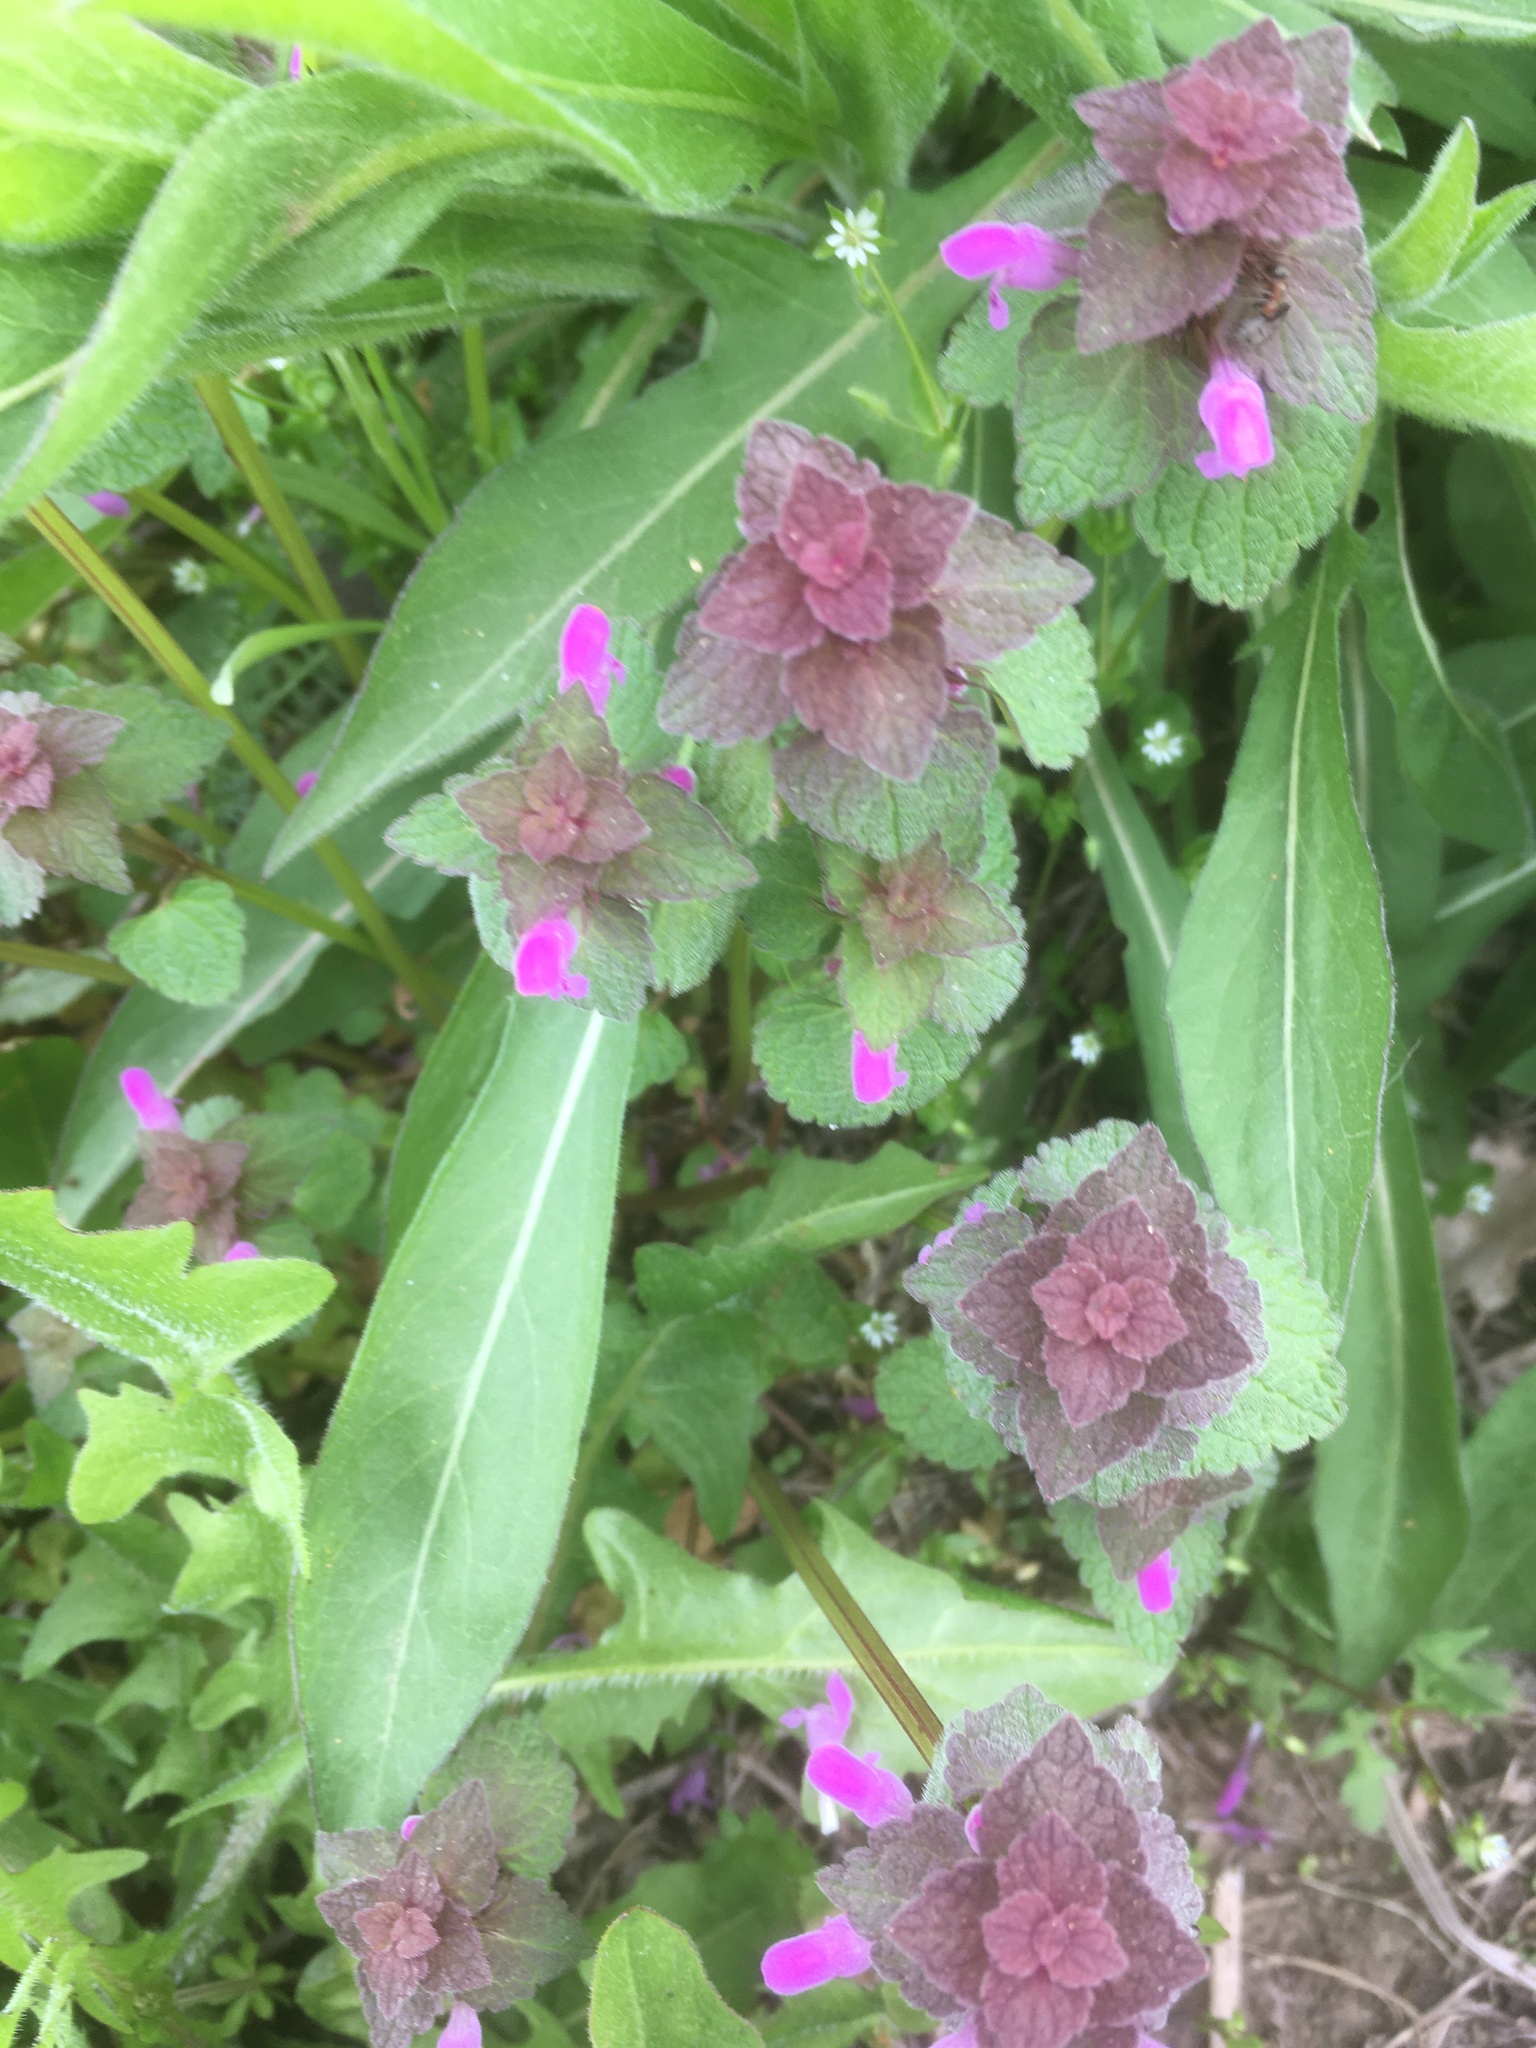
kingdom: Plantae
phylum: Tracheophyta
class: Magnoliopsida
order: Lamiales
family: Lamiaceae
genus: Lamium
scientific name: Lamium purpureum
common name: Red dead-nettle
